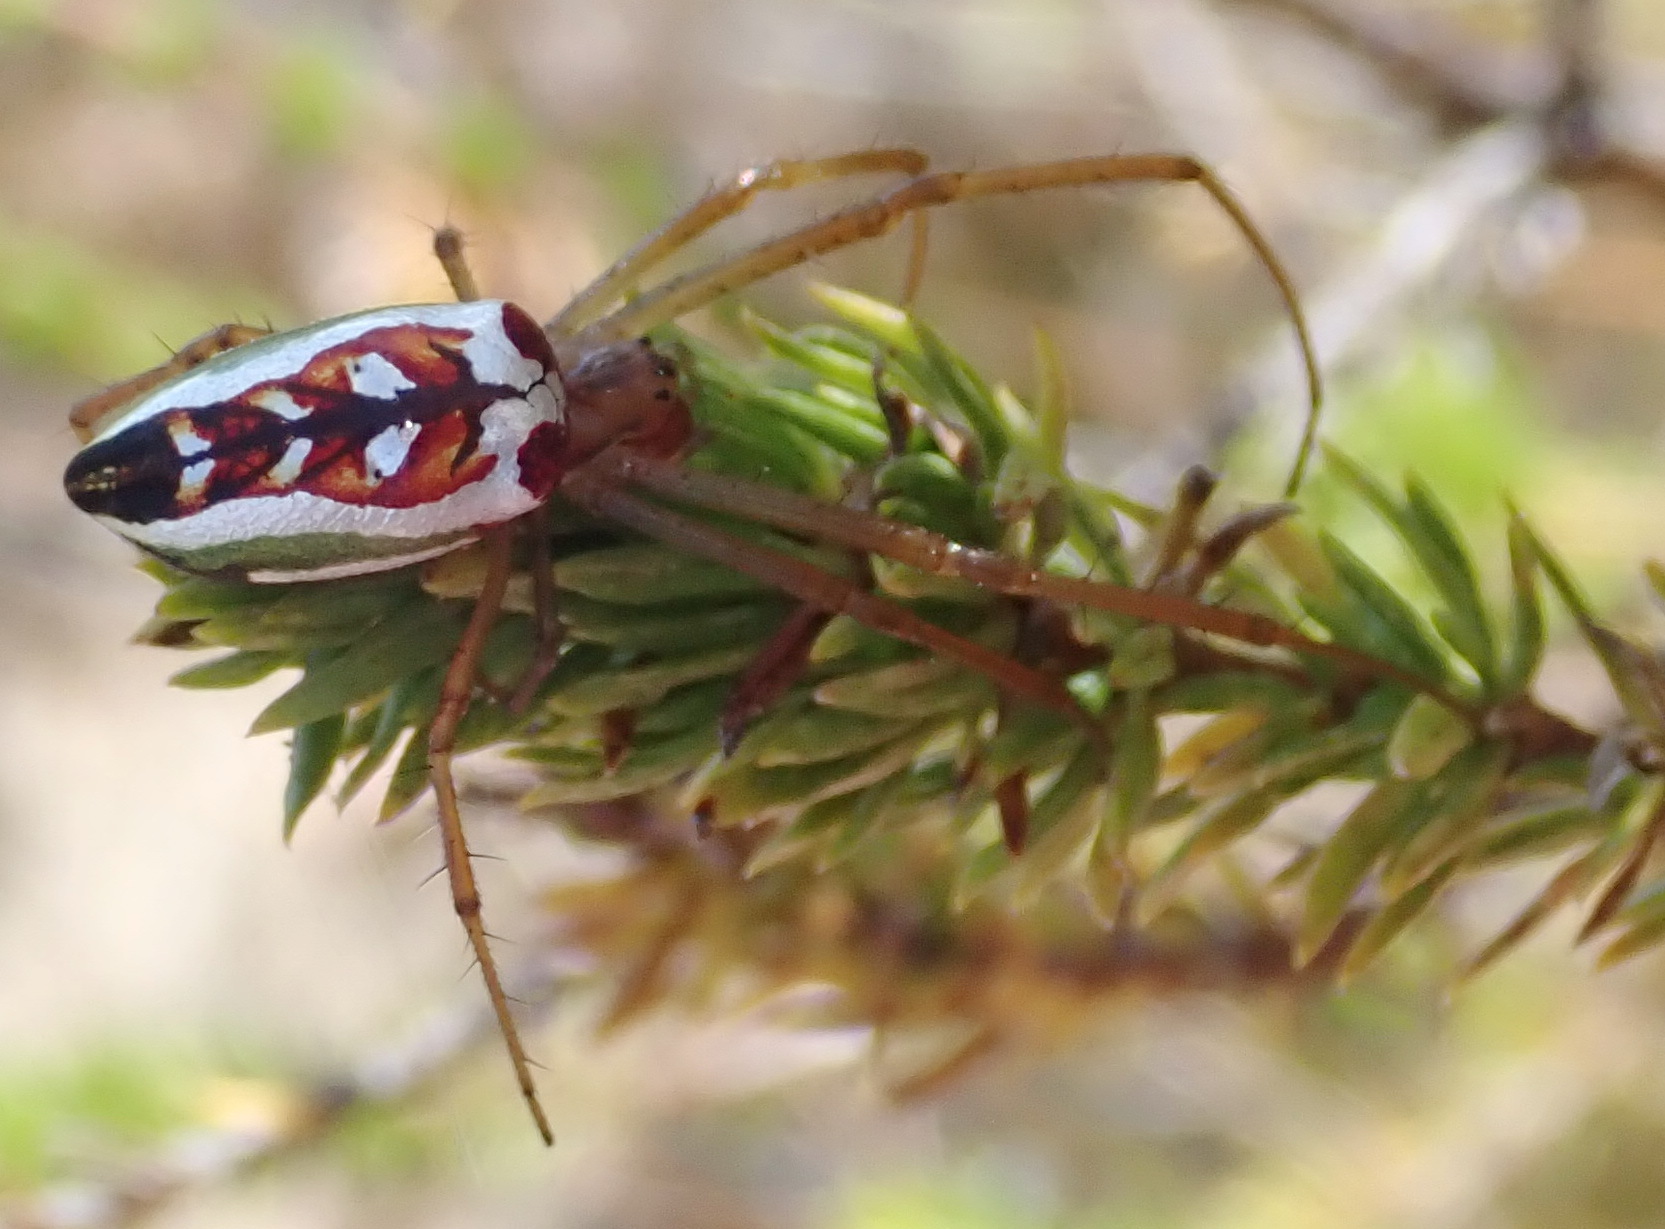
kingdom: Animalia
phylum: Arthropoda
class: Arachnida
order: Araneae
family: Tetragnathidae
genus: Leucauge
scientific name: Leucauge festiva
